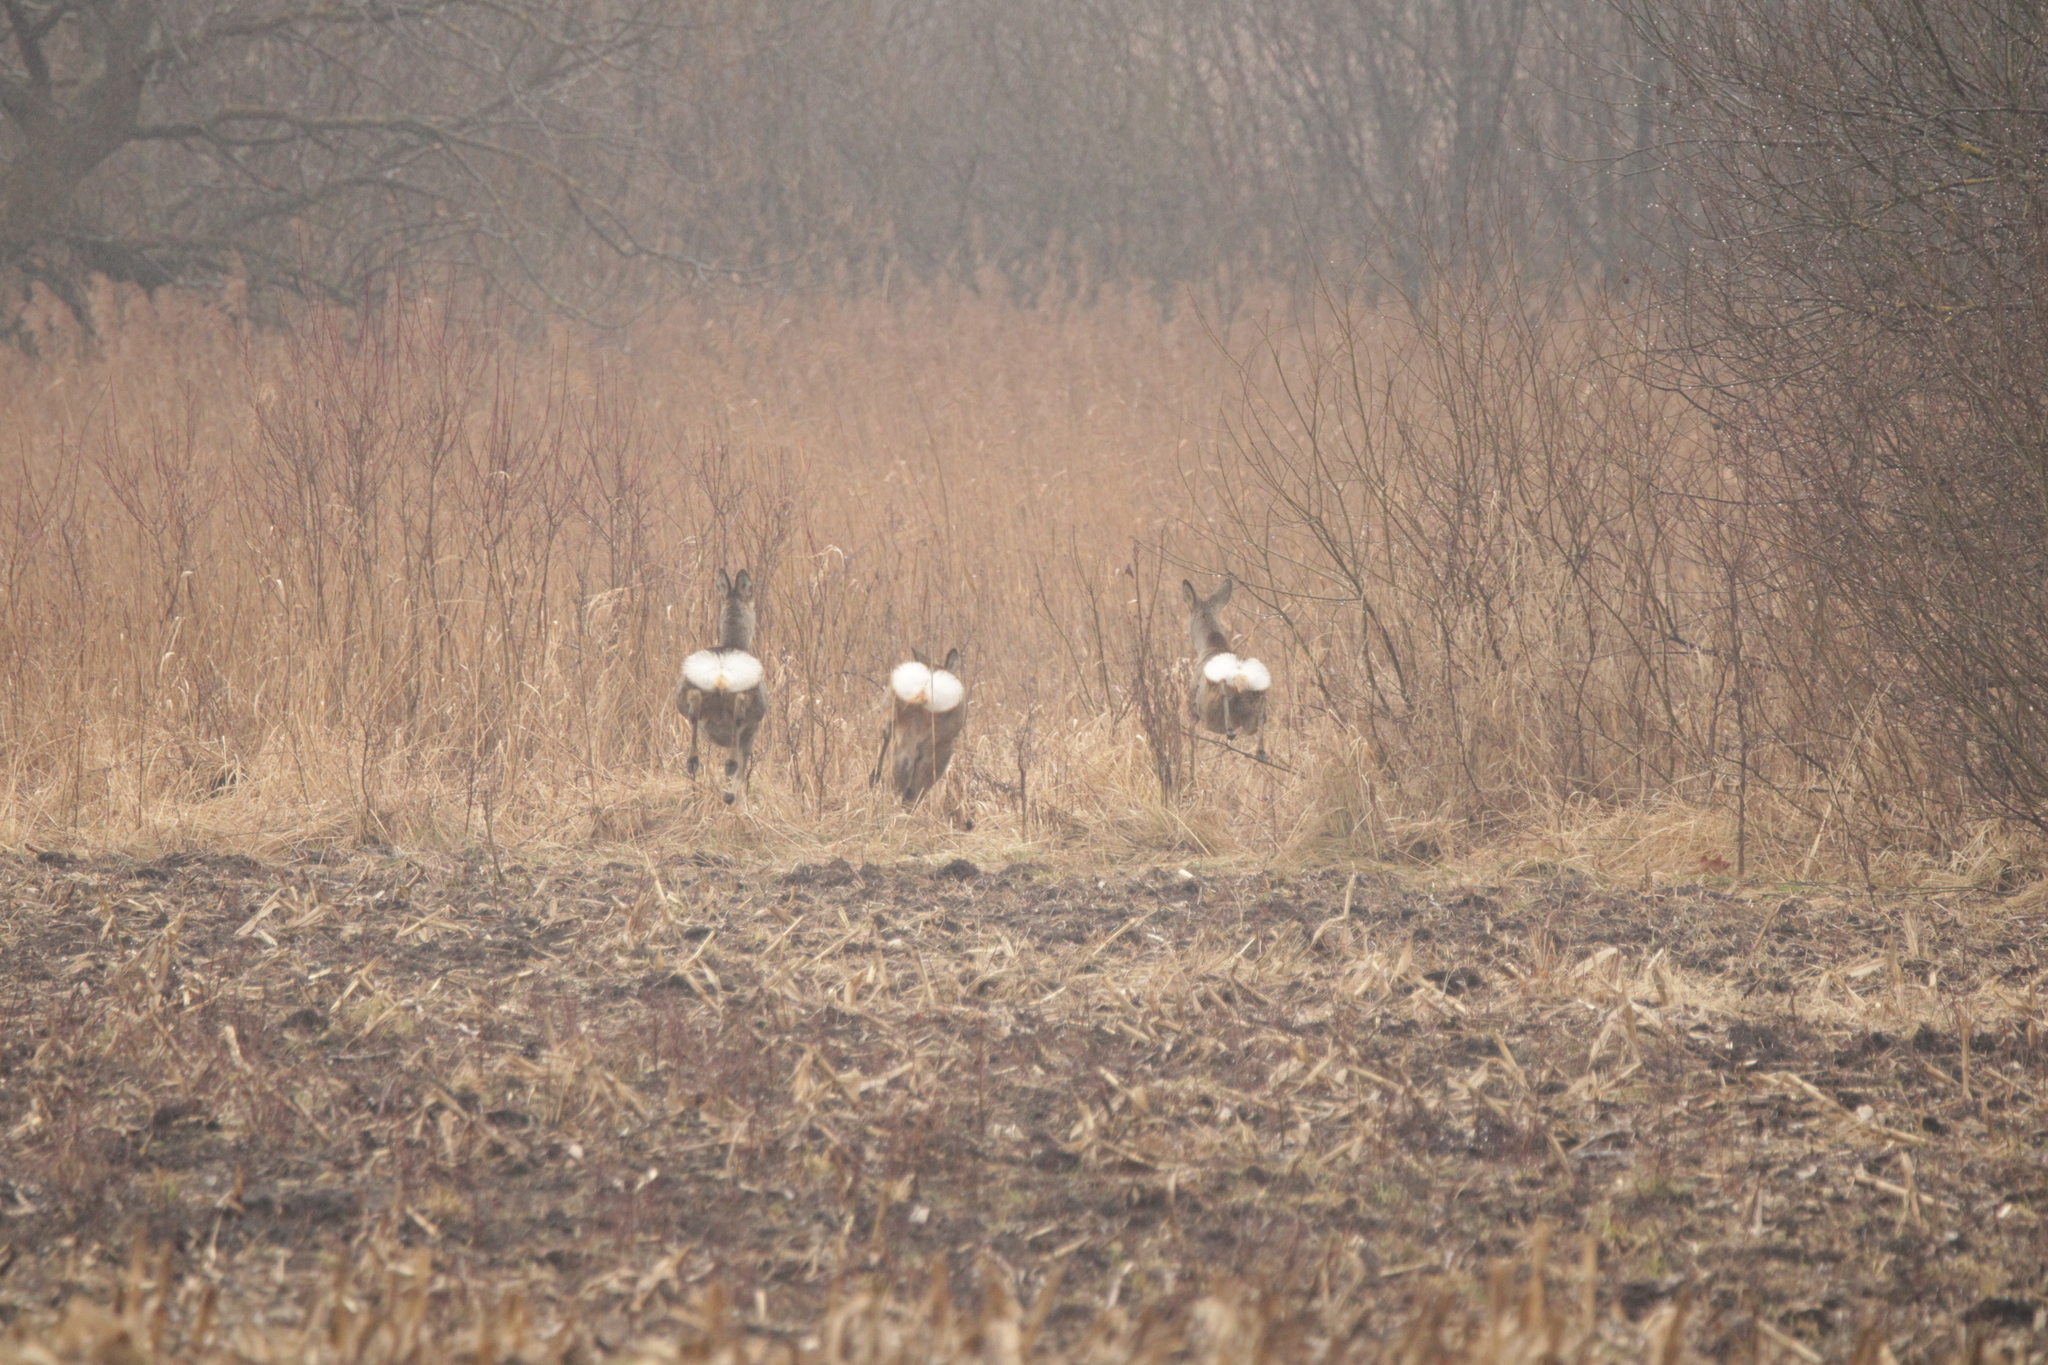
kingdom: Animalia
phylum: Chordata
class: Mammalia
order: Artiodactyla
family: Cervidae
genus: Capreolus
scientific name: Capreolus capreolus
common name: Western roe deer
